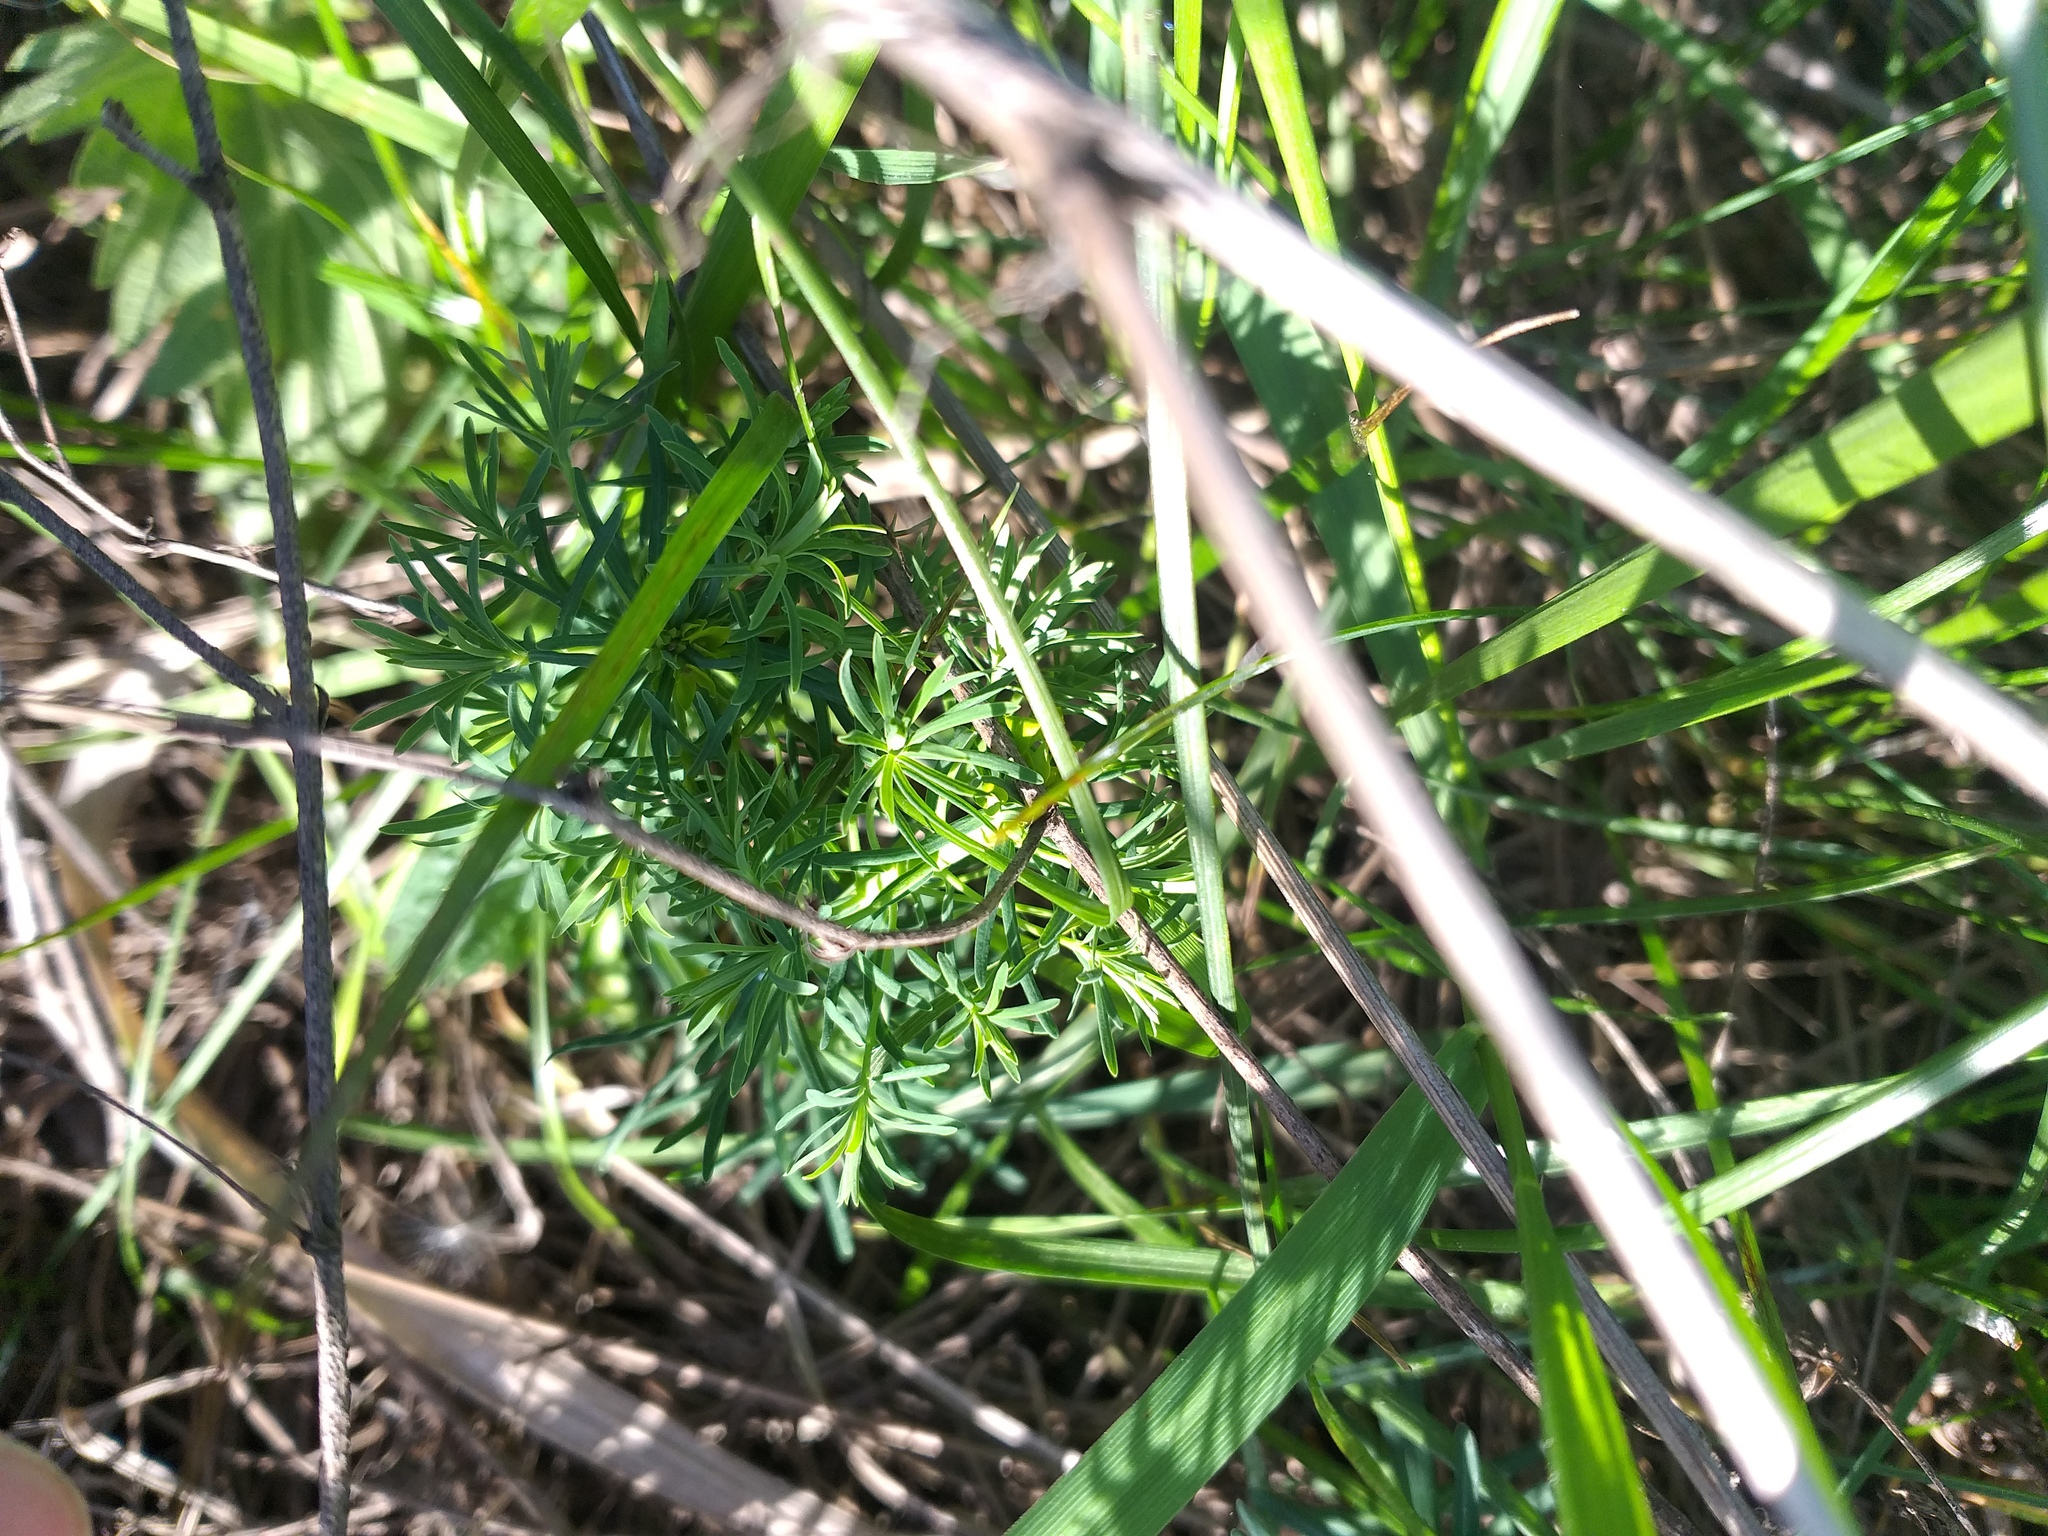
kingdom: Plantae
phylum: Tracheophyta
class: Magnoliopsida
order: Malpighiales
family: Euphorbiaceae
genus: Euphorbia
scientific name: Euphorbia cyparissias
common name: Cypress spurge
